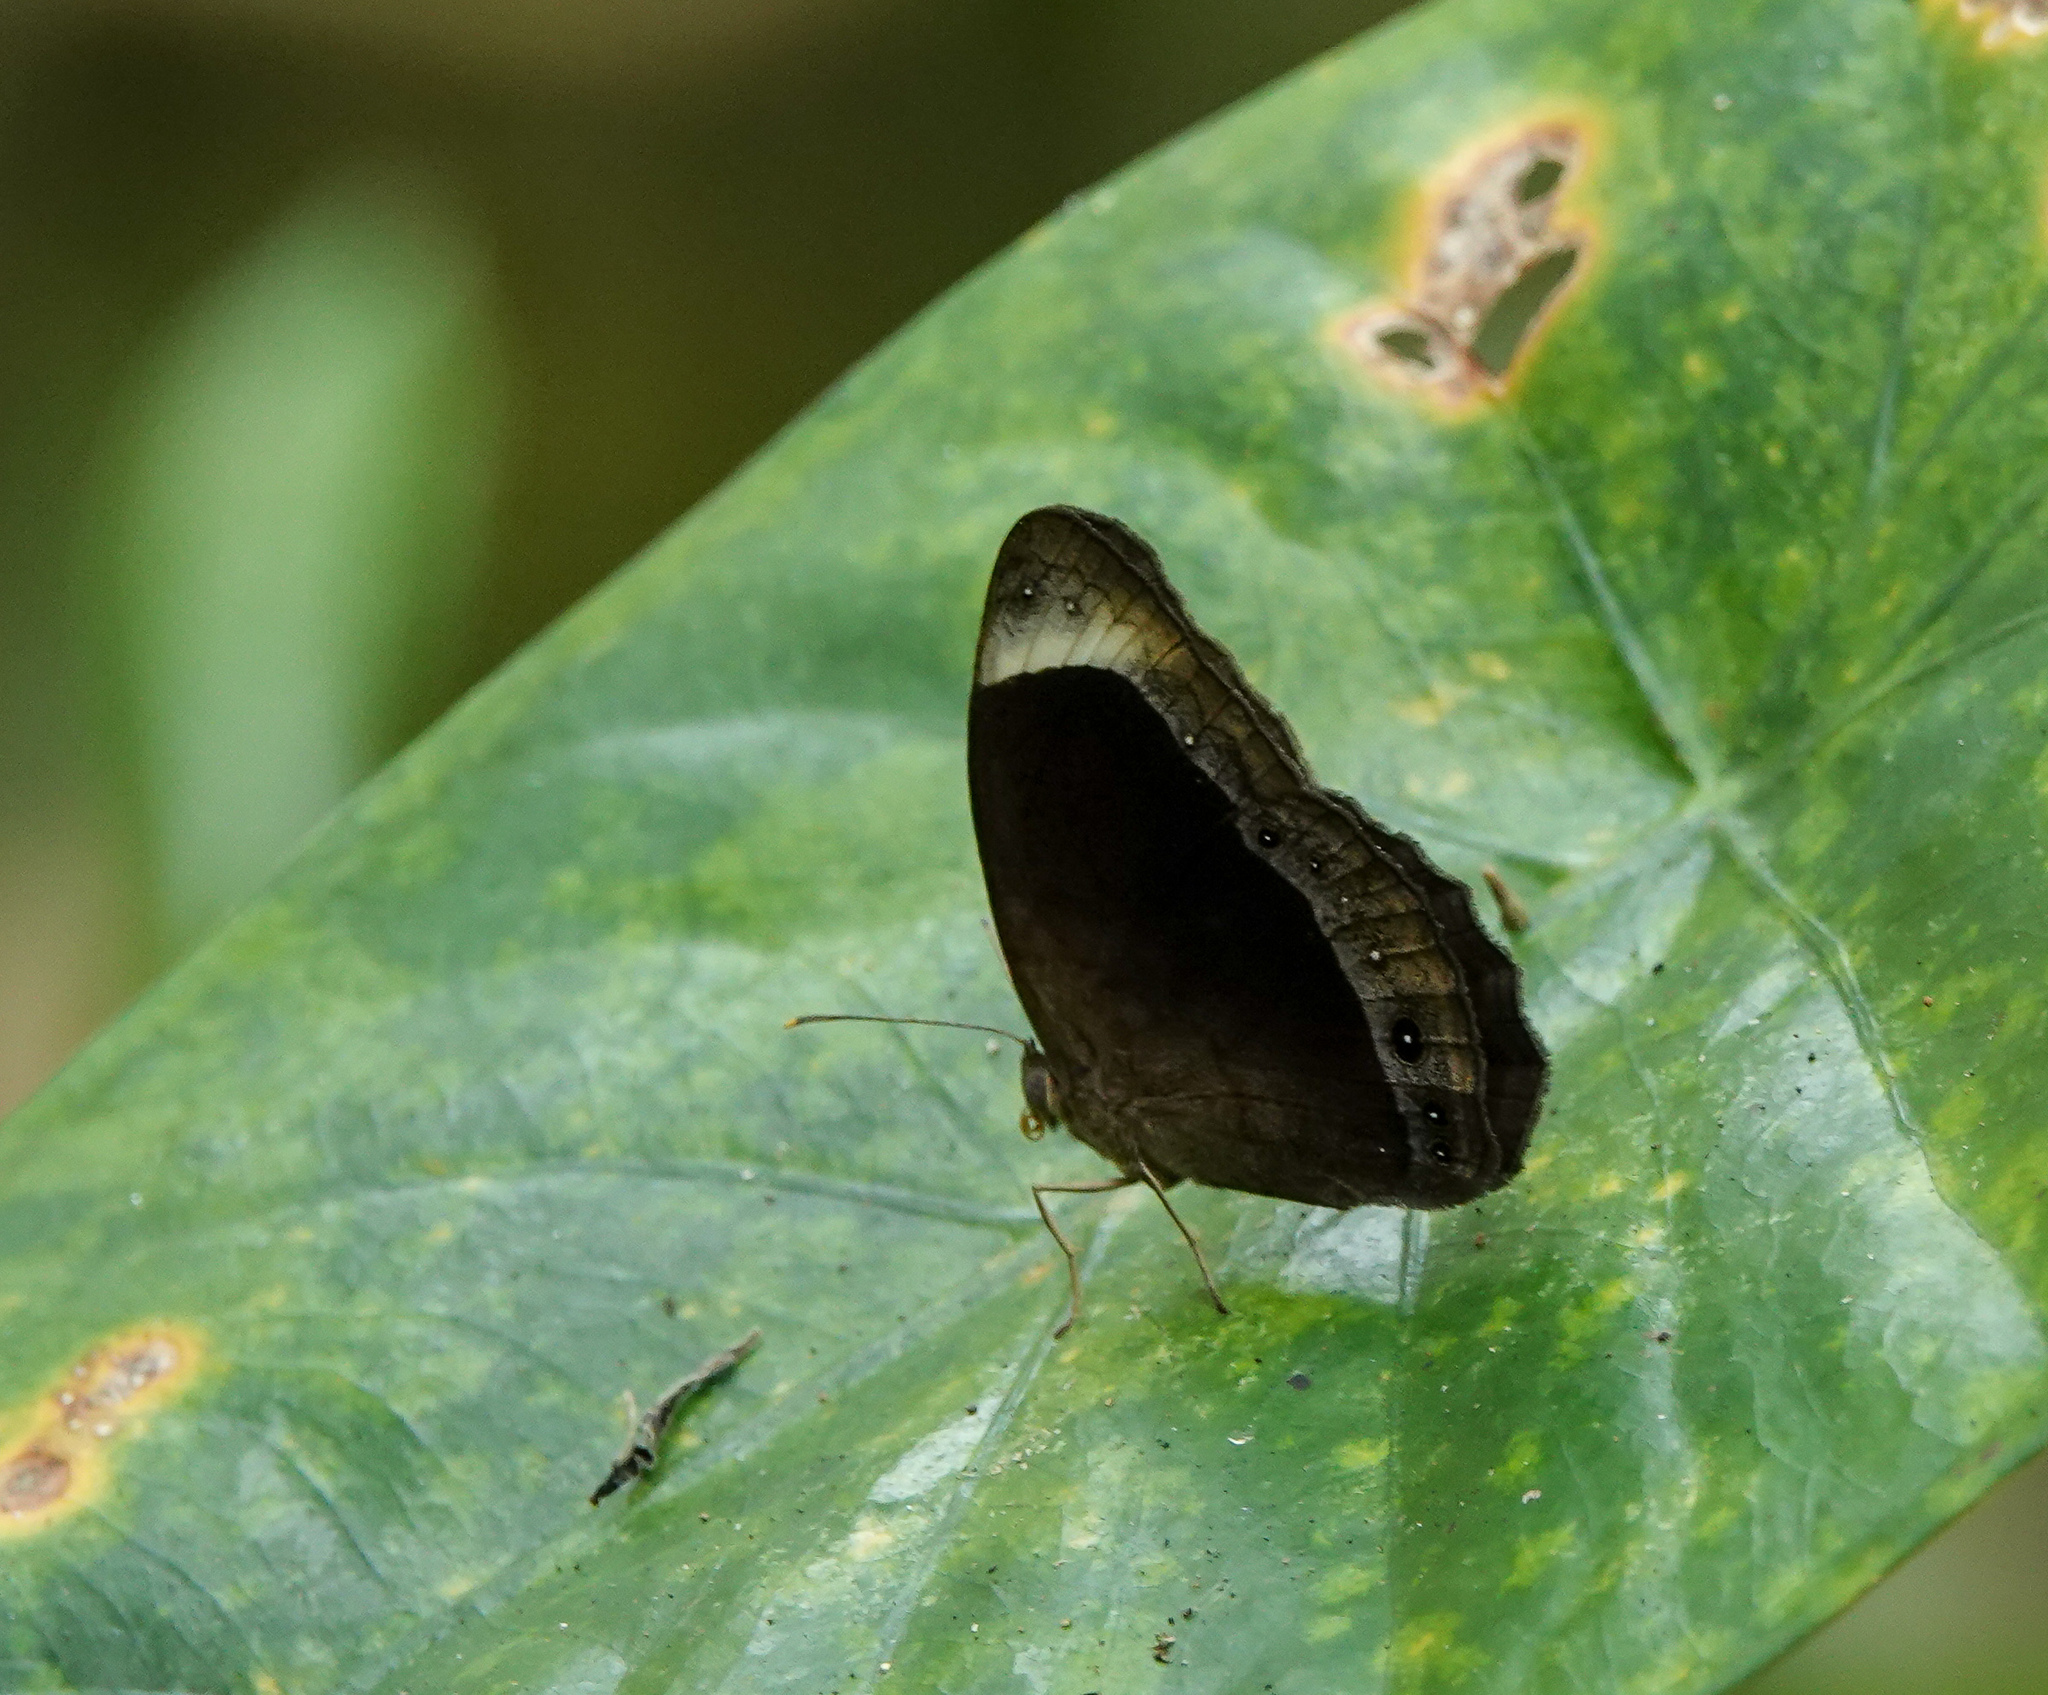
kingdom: Animalia
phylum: Arthropoda
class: Insecta
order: Lepidoptera
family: Nymphalidae
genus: Mycalesis
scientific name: Mycalesis anaxias
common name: White-bar bushbrown
